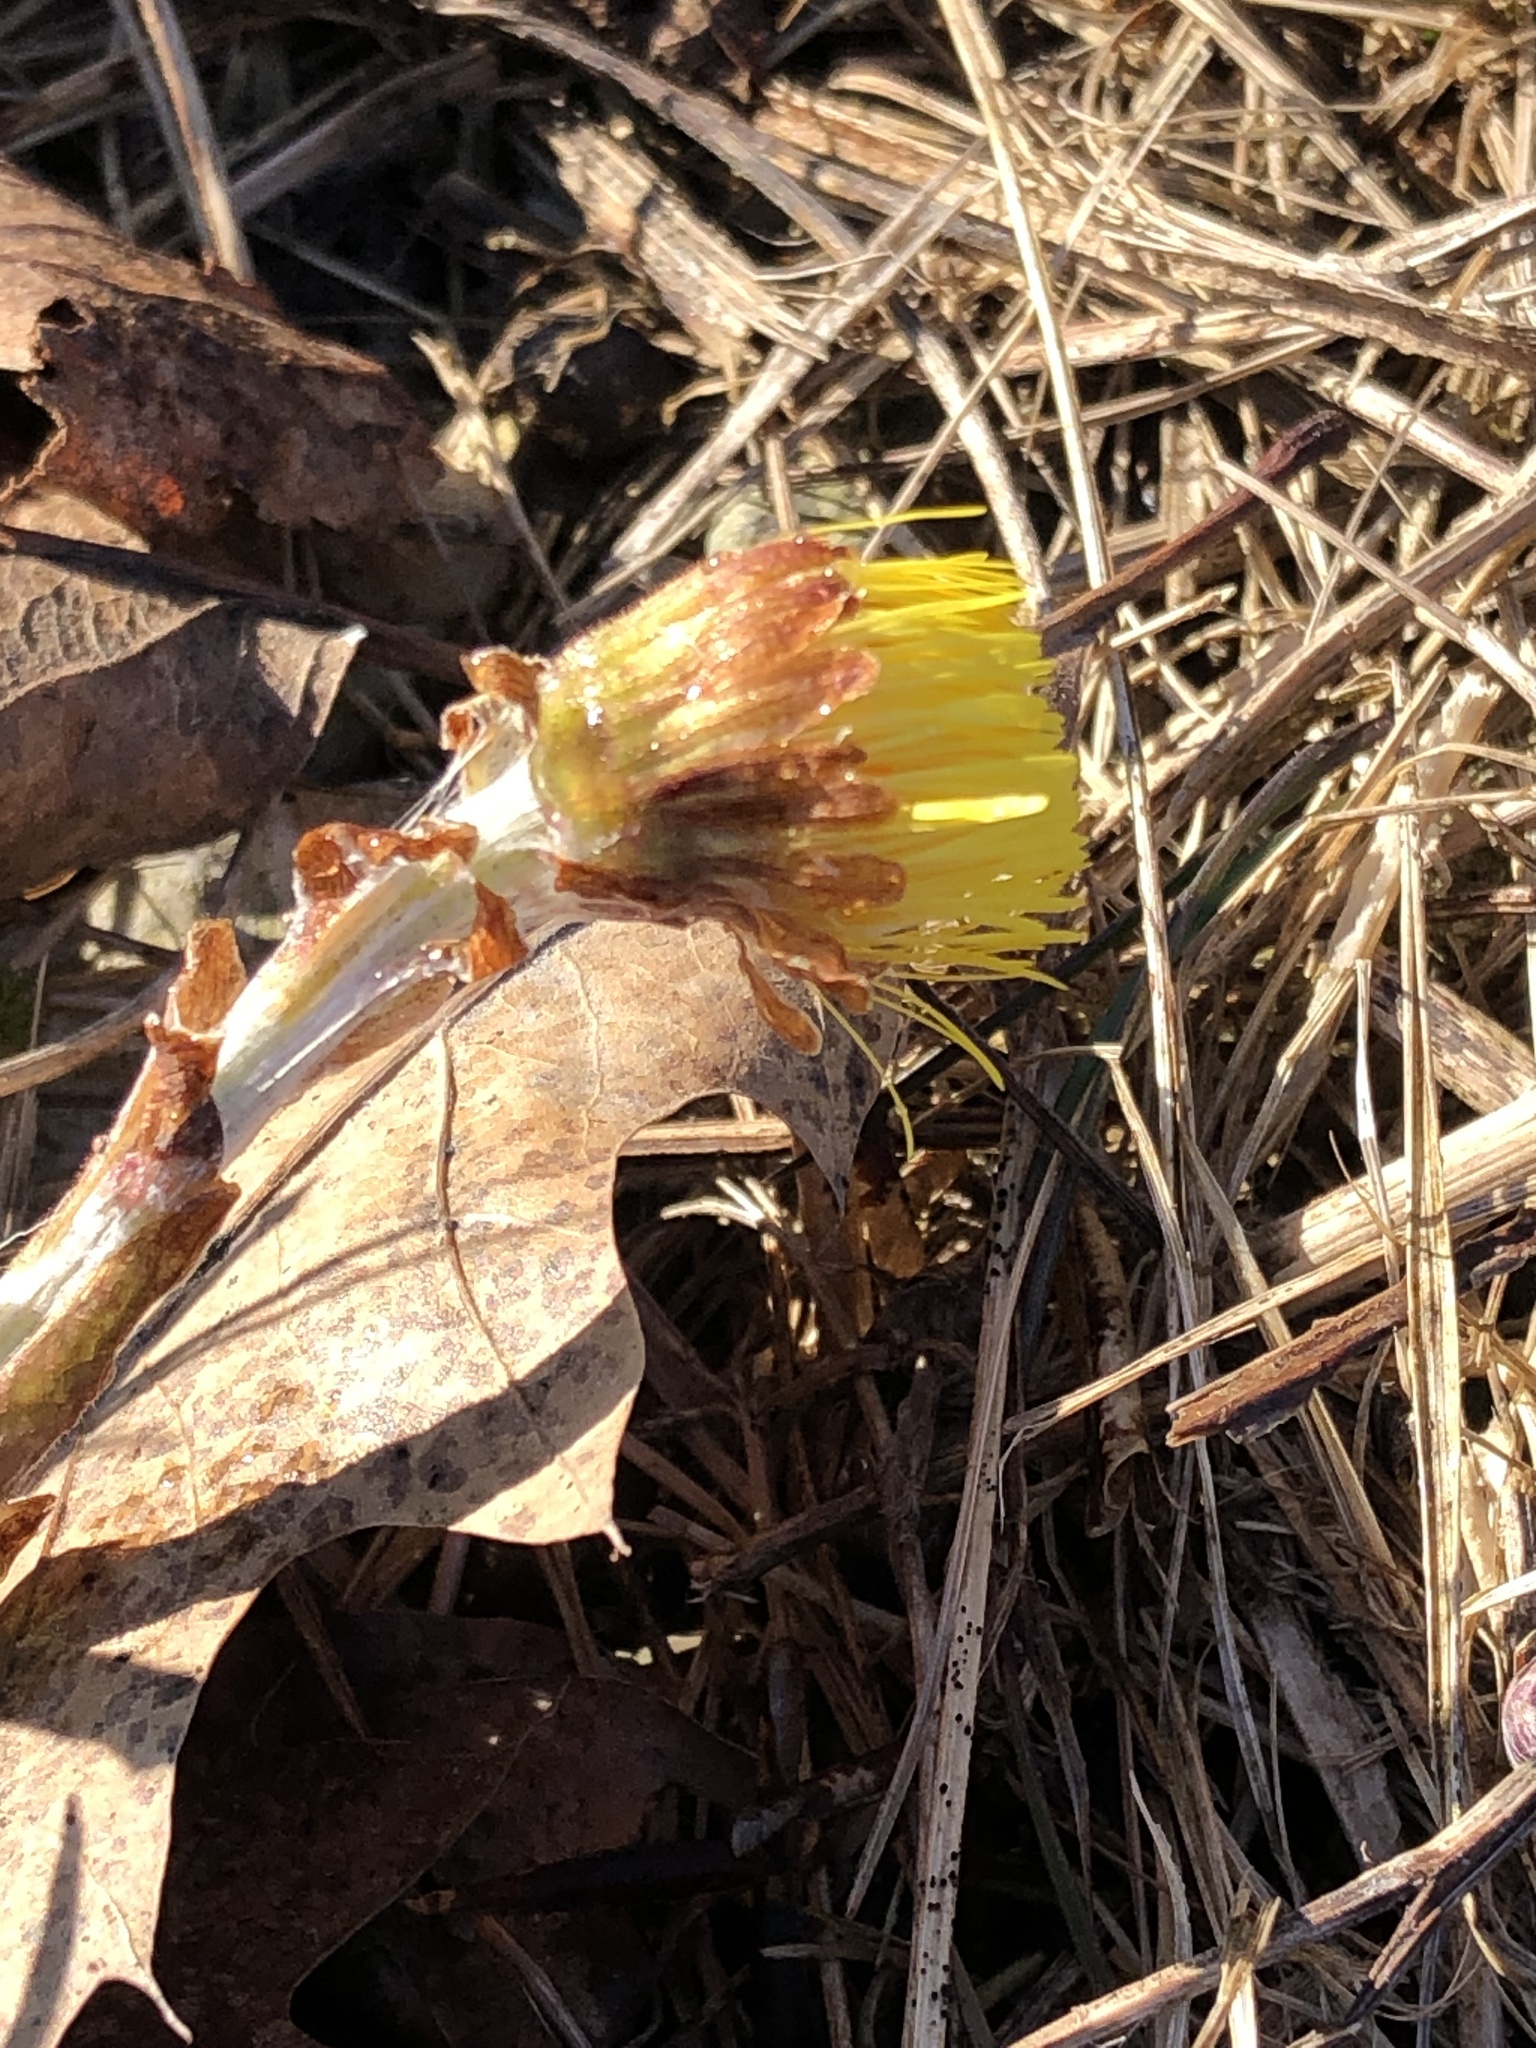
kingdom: Plantae
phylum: Tracheophyta
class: Magnoliopsida
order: Asterales
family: Asteraceae
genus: Tussilago
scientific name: Tussilago farfara
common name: Coltsfoot
